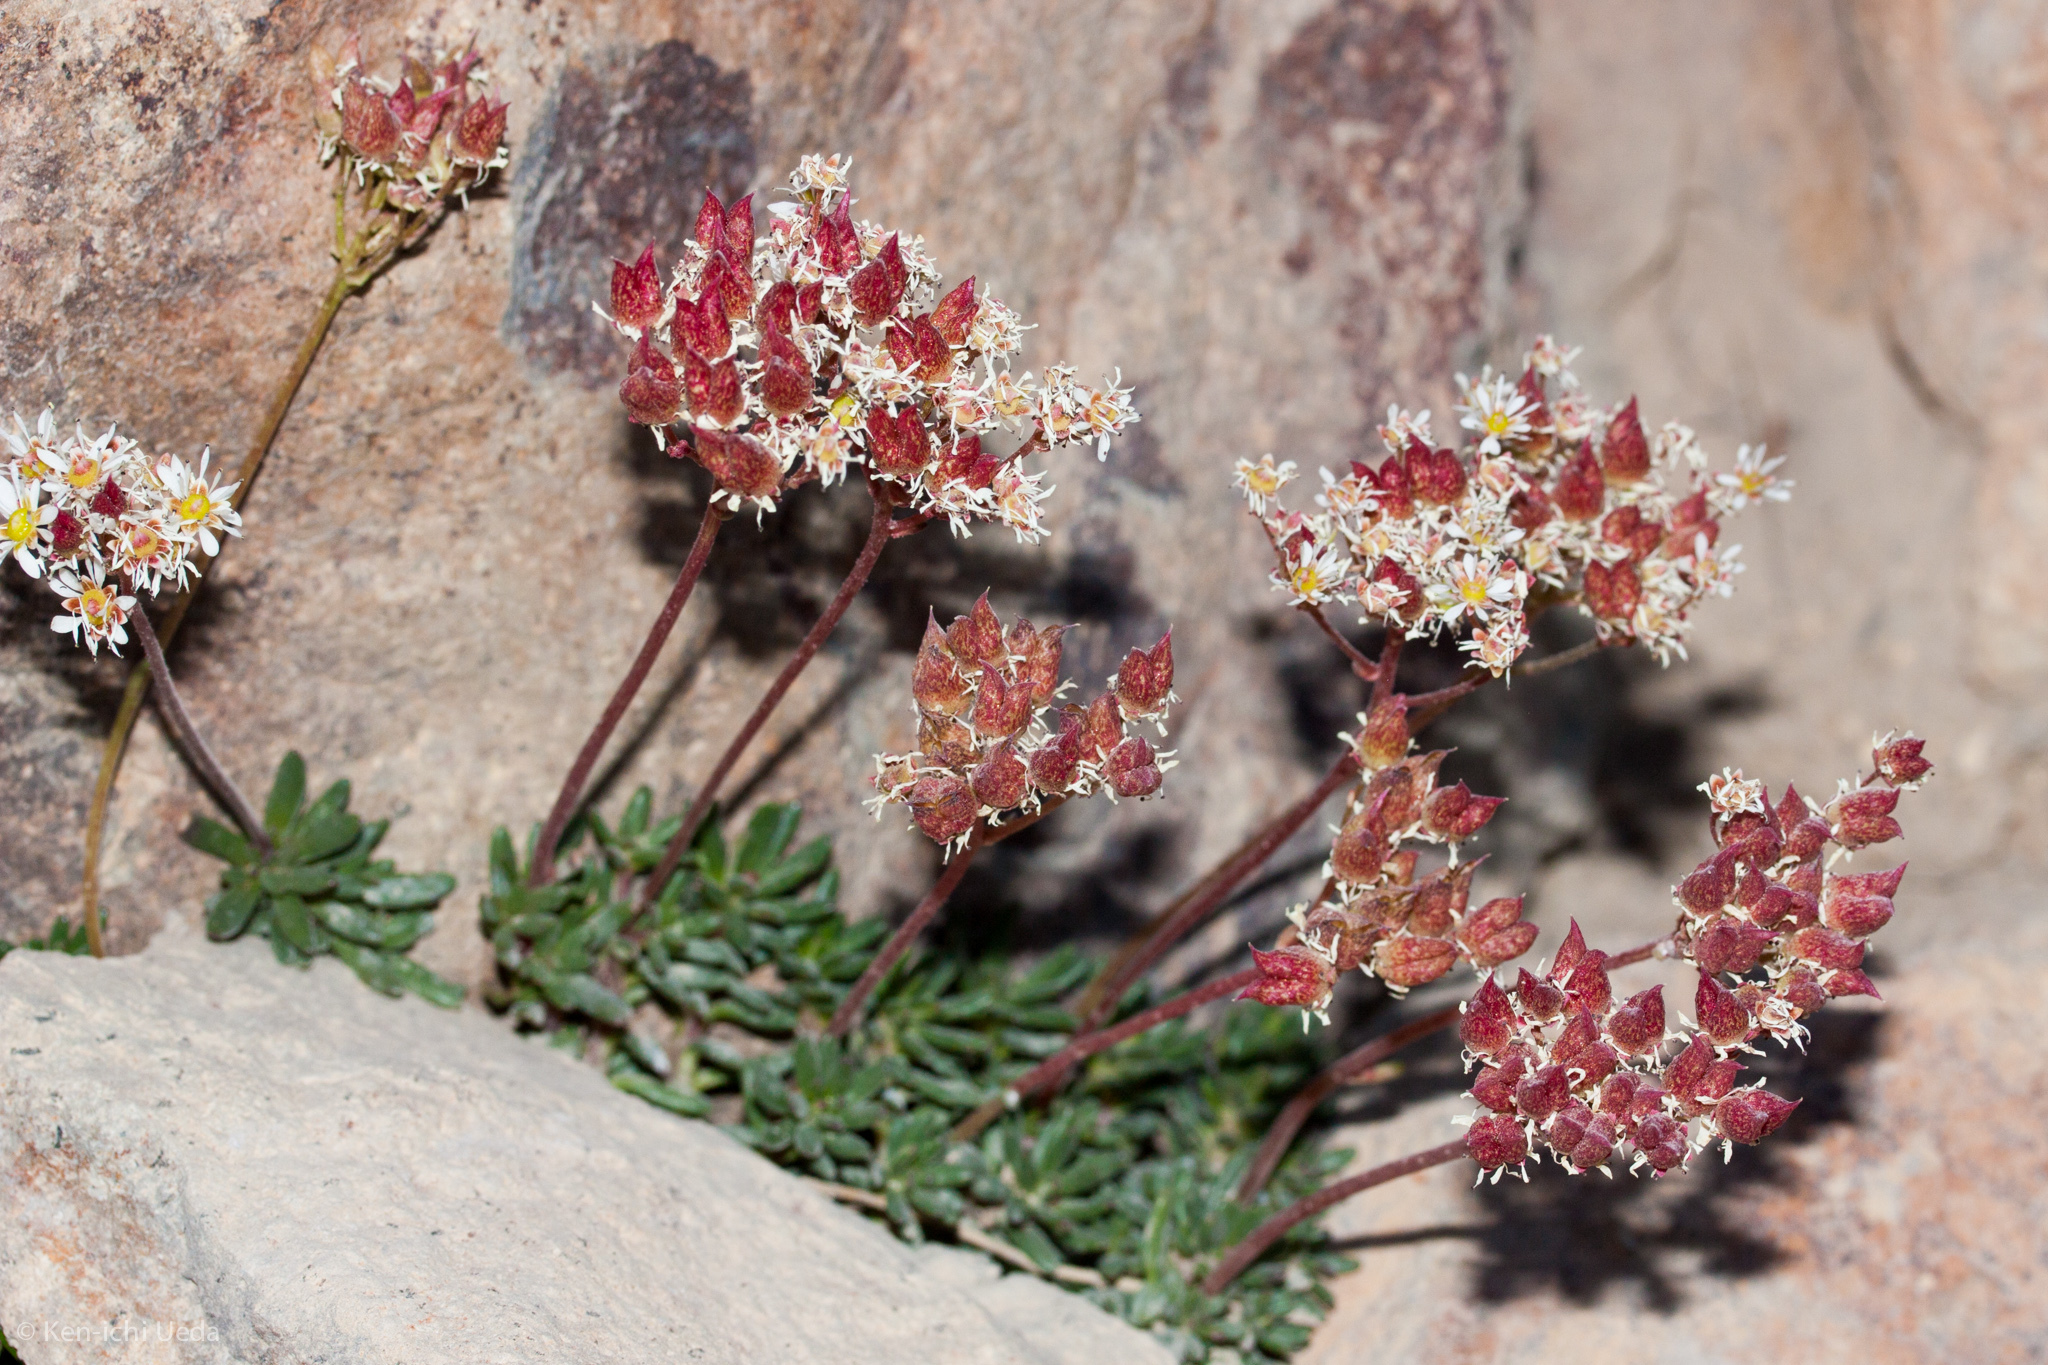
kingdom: Plantae
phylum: Tracheophyta
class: Magnoliopsida
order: Saxifragales
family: Saxifragaceae
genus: Micranthes
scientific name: Micranthes tolmiei
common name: Tolmie's saxifrage
